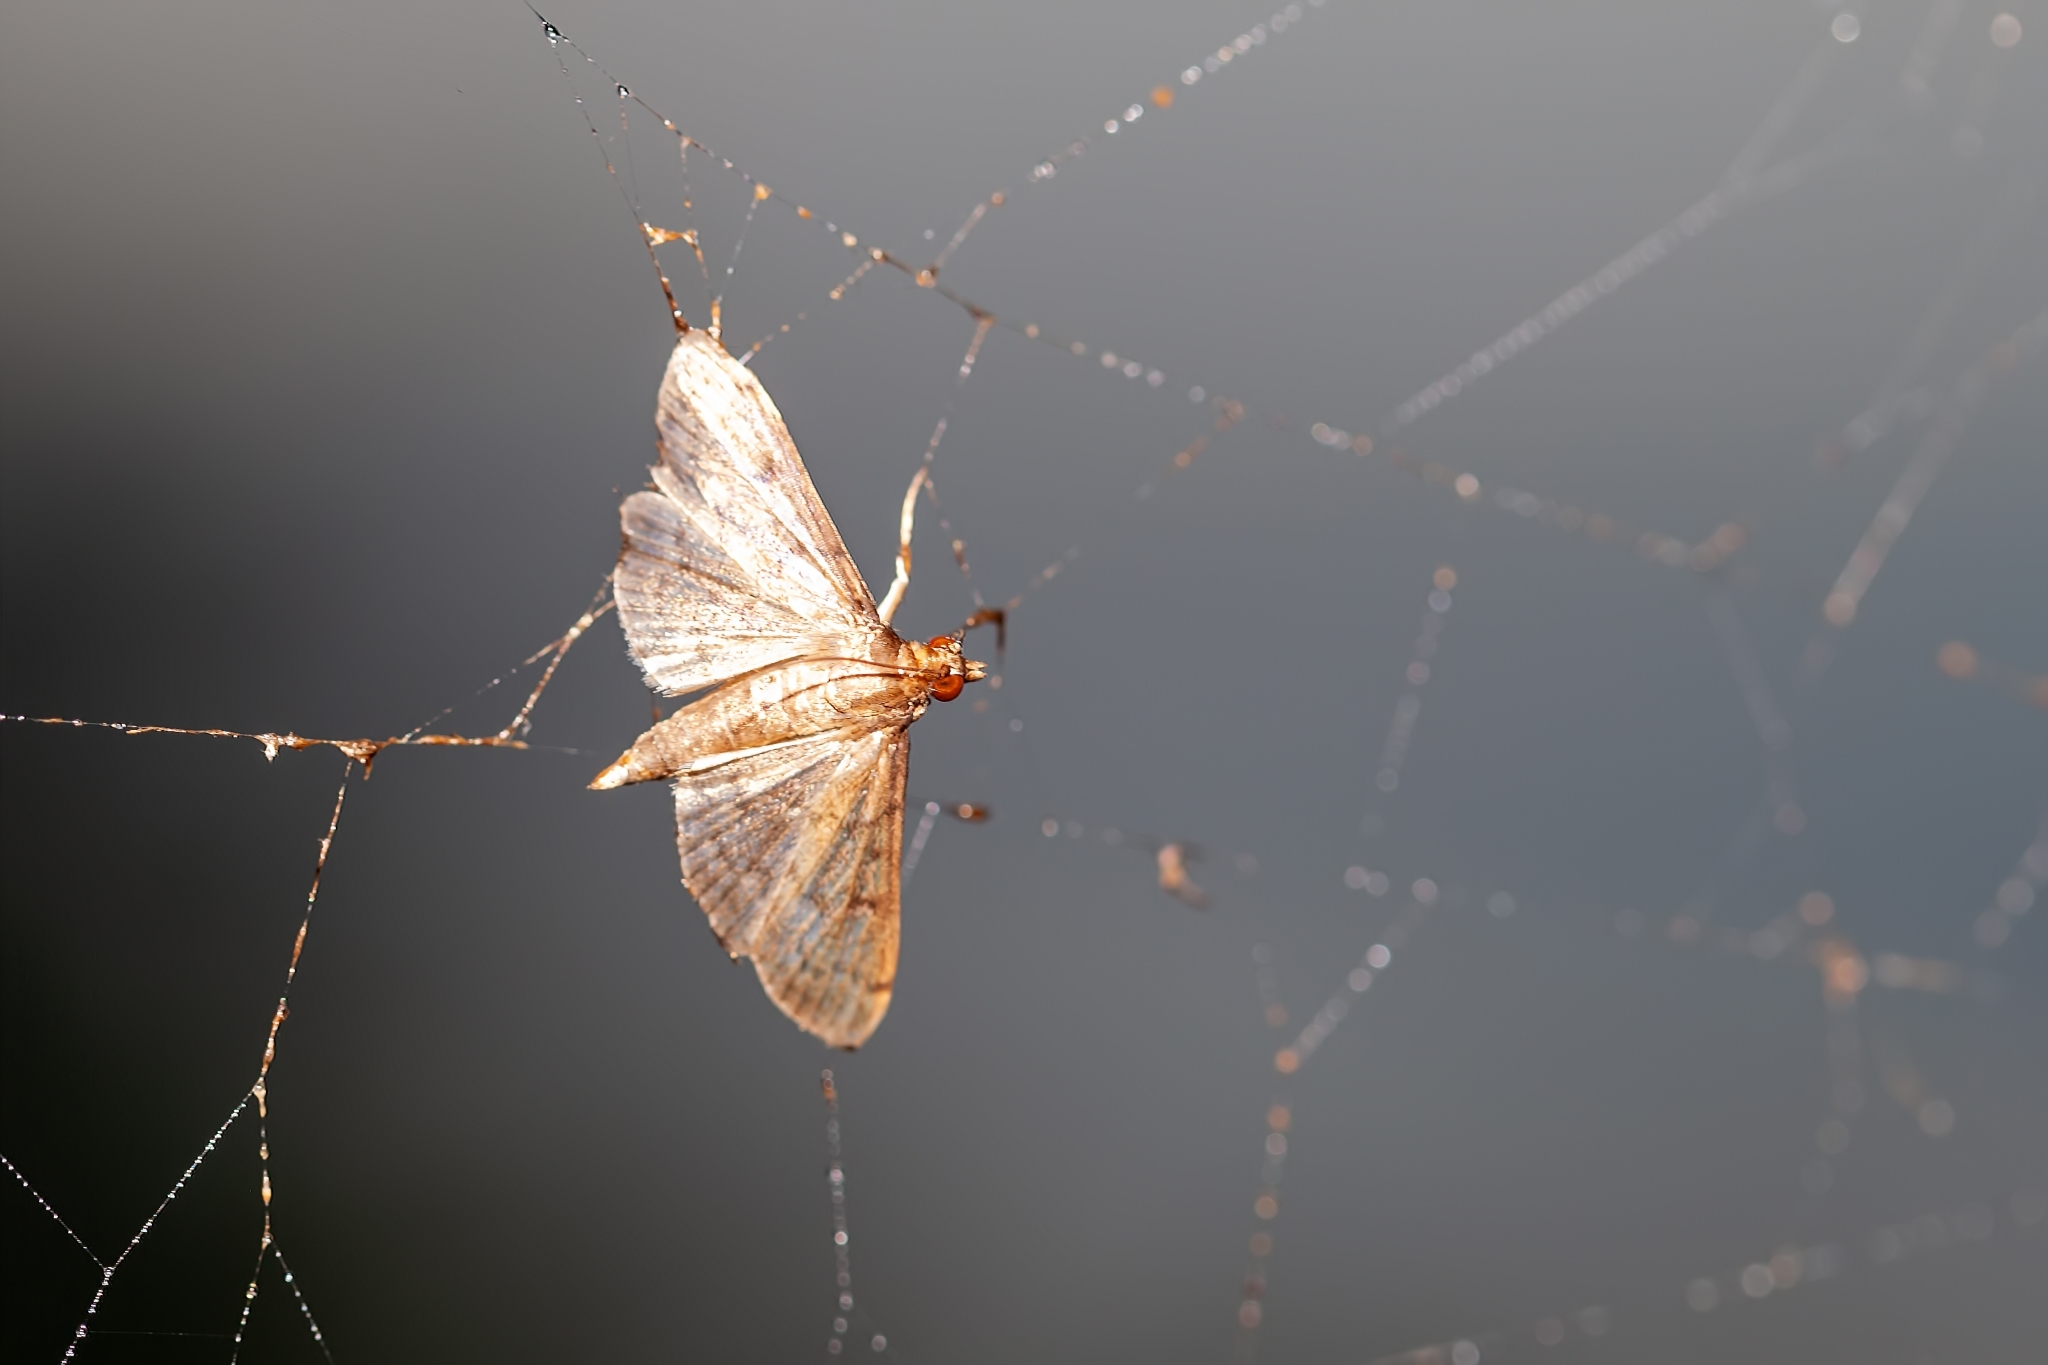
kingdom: Animalia
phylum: Arthropoda
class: Insecta
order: Lepidoptera
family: Crambidae
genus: Herpetogramma
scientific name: Herpetogramma phaeopteralis
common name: Dusky herpetogramma moth
